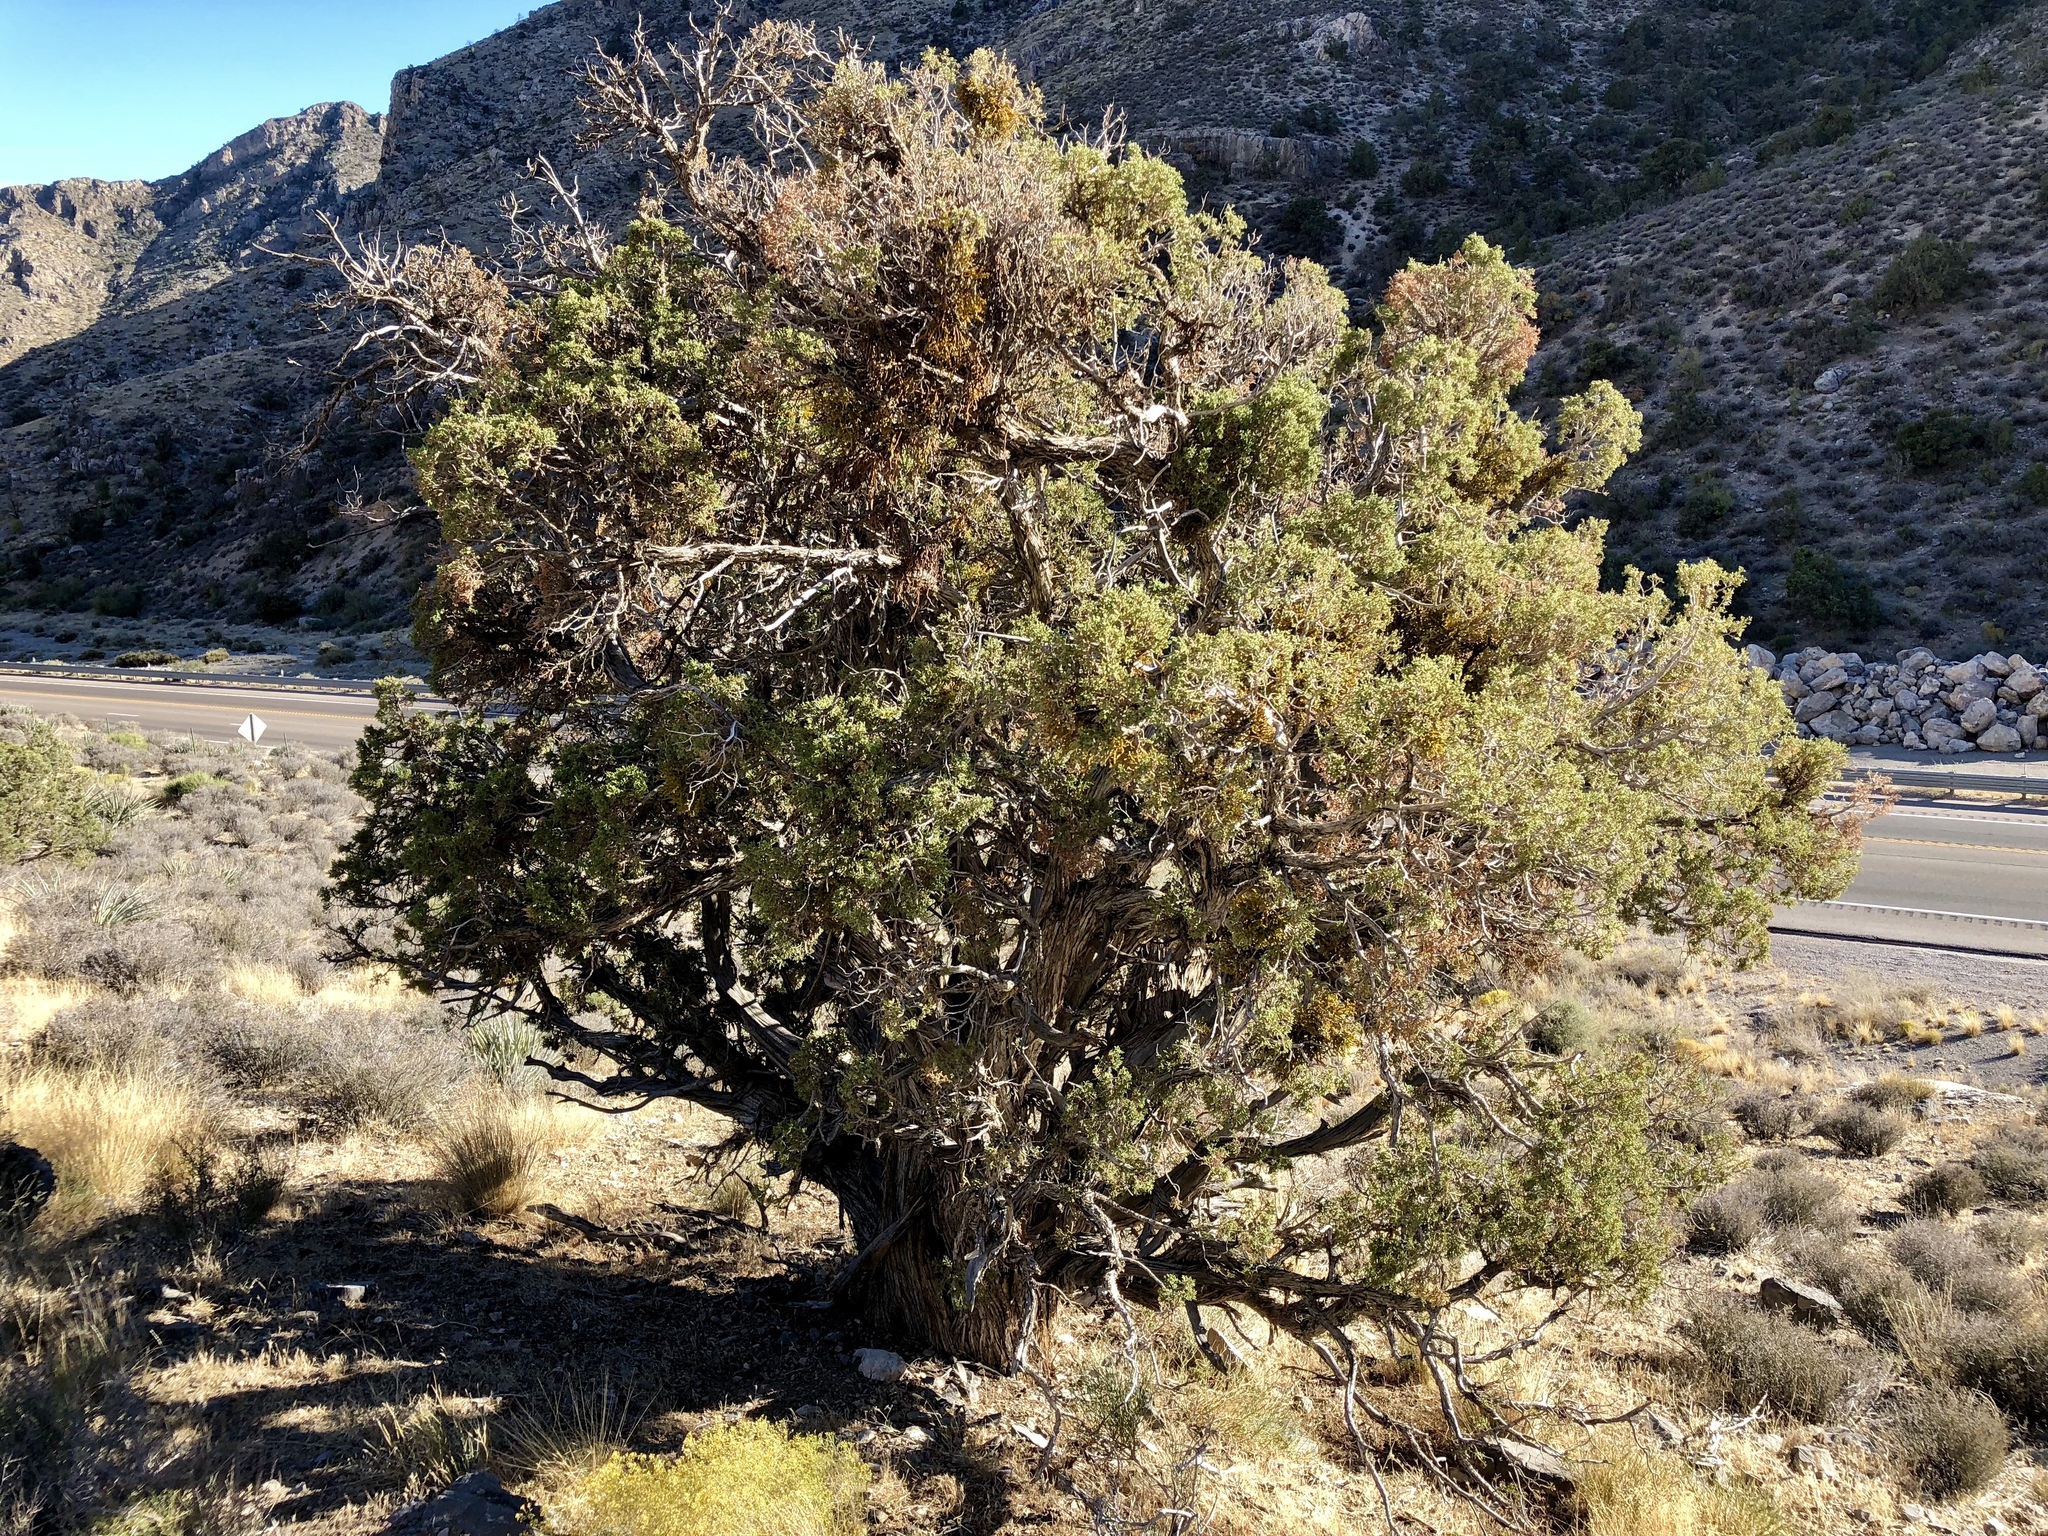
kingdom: Plantae
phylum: Tracheophyta
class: Pinopsida
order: Pinales
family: Cupressaceae
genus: Juniperus
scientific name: Juniperus osteosperma
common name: Utah juniper
